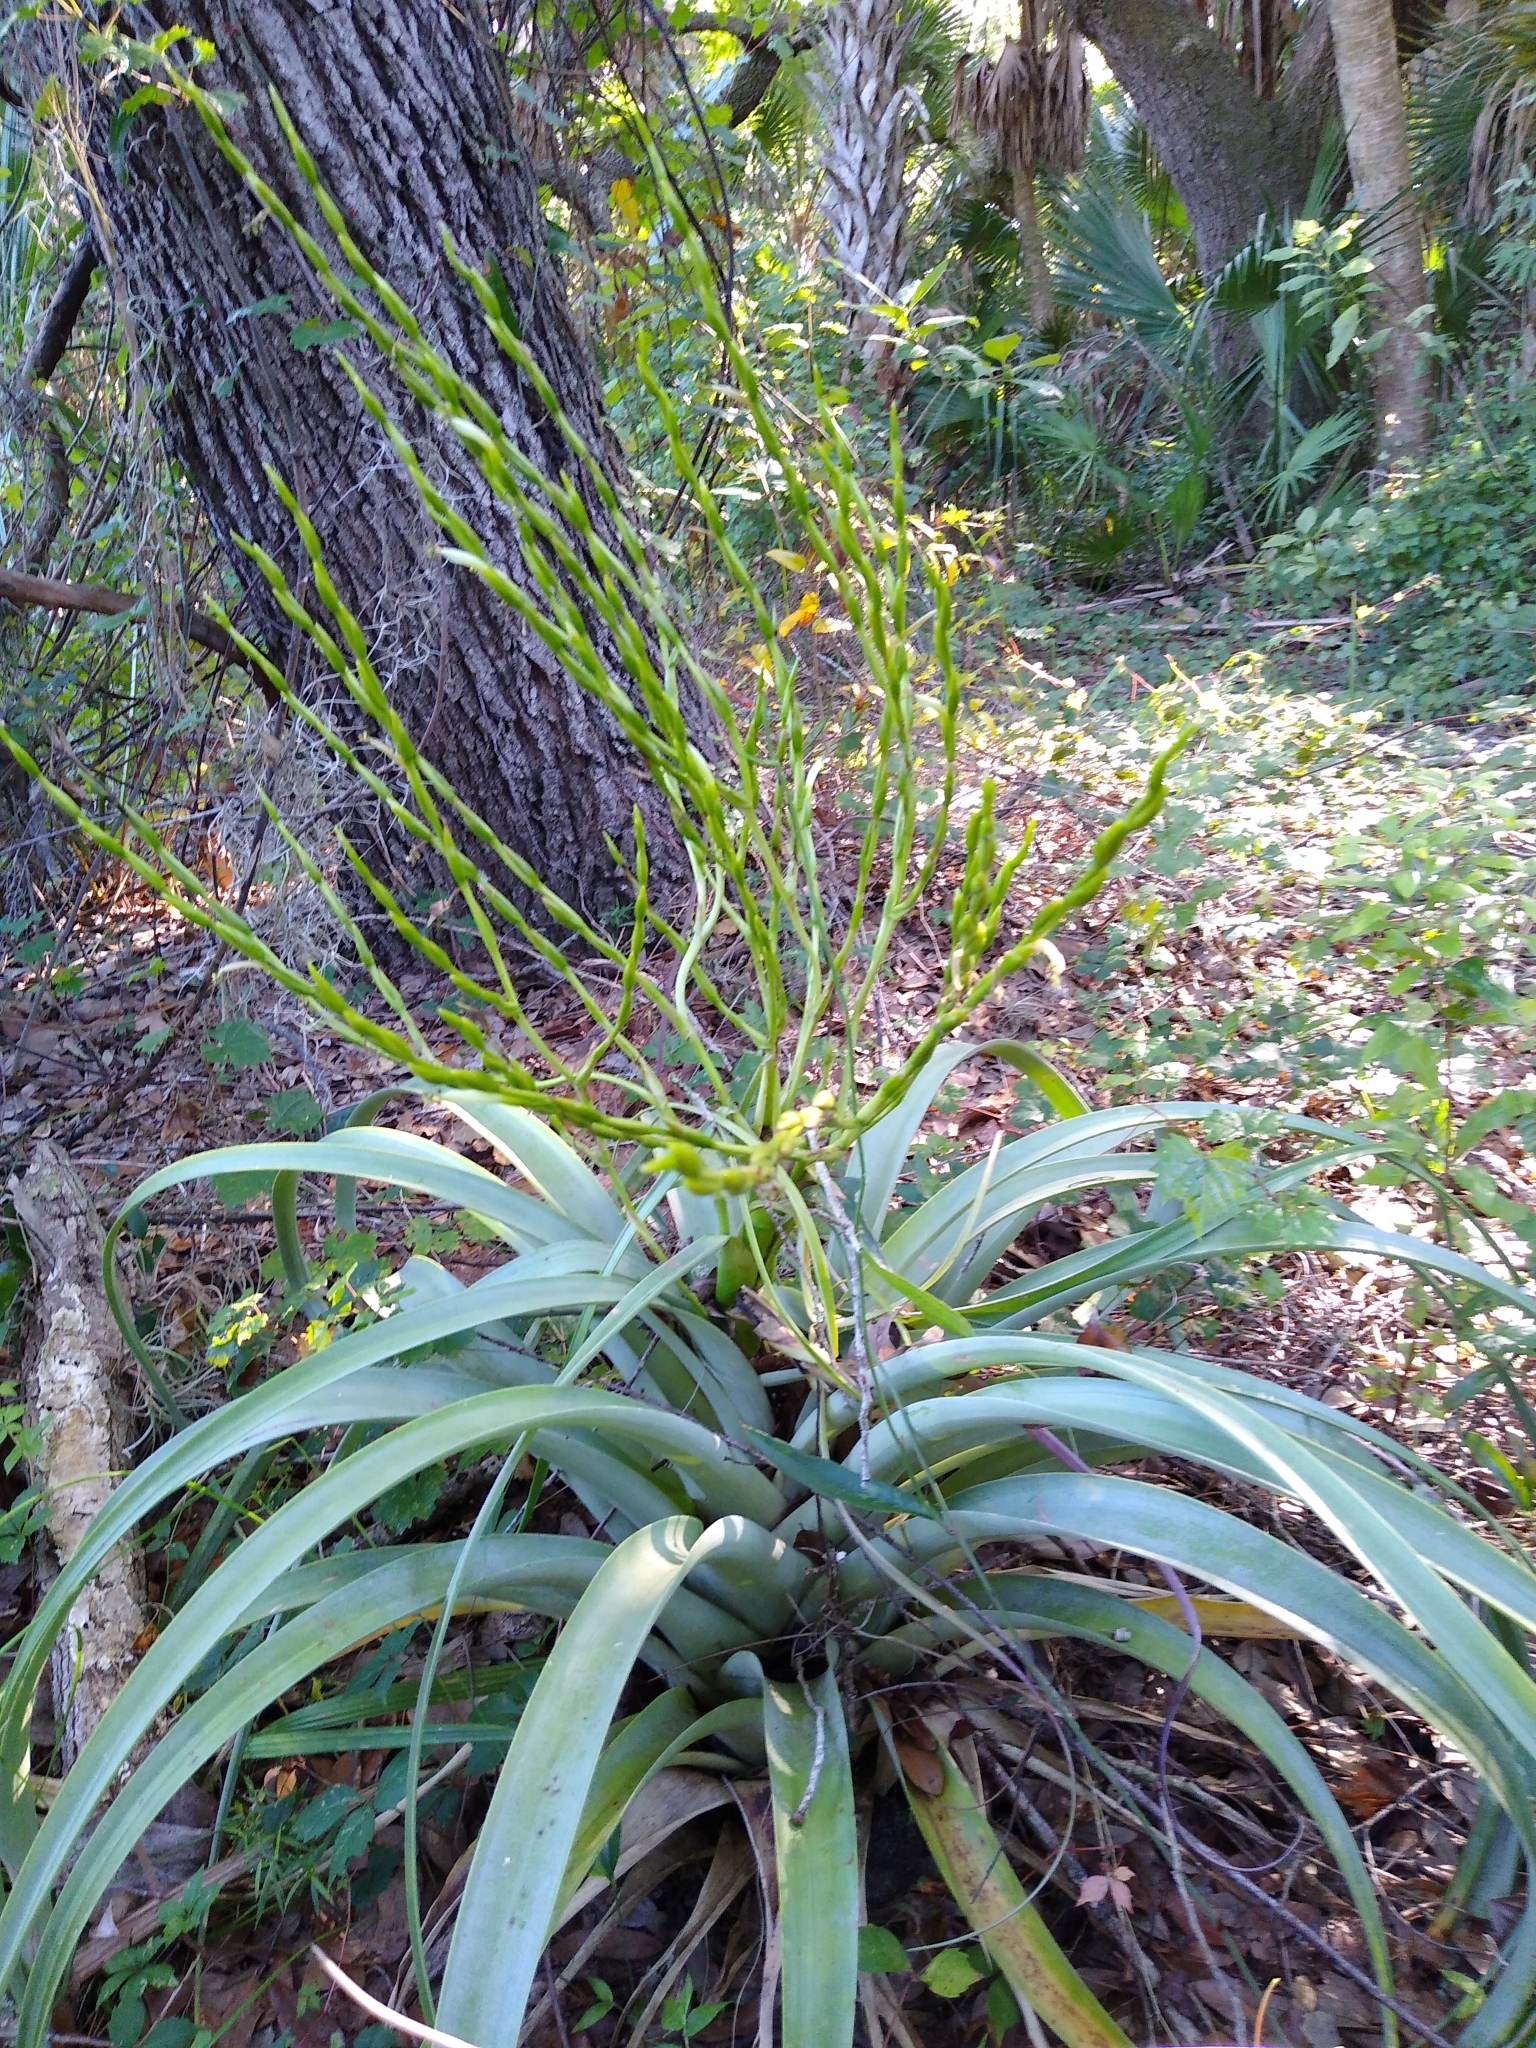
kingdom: Plantae
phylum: Tracheophyta
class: Liliopsida
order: Poales
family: Bromeliaceae
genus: Tillandsia
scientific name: Tillandsia utriculata
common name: Wild pine
